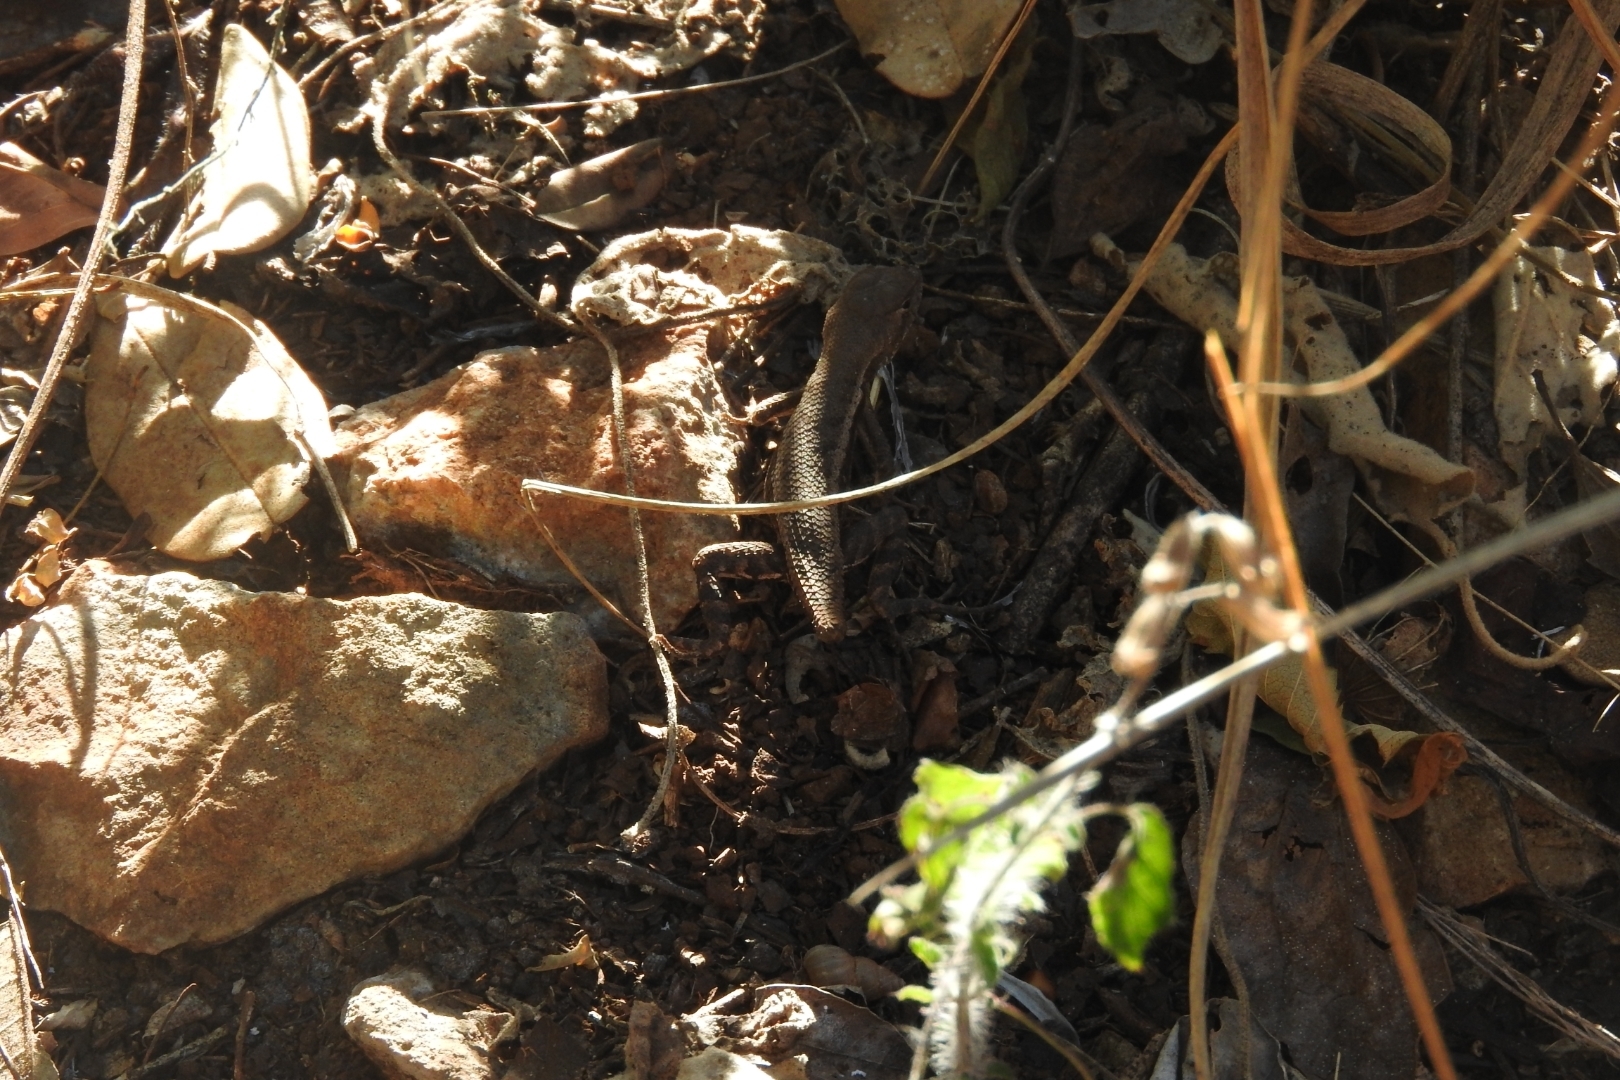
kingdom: Animalia
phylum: Chordata
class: Squamata
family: Phrynosomatidae
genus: Sceloporus
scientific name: Sceloporus chrysostictus
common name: Yellow-spotted spiny lizard
